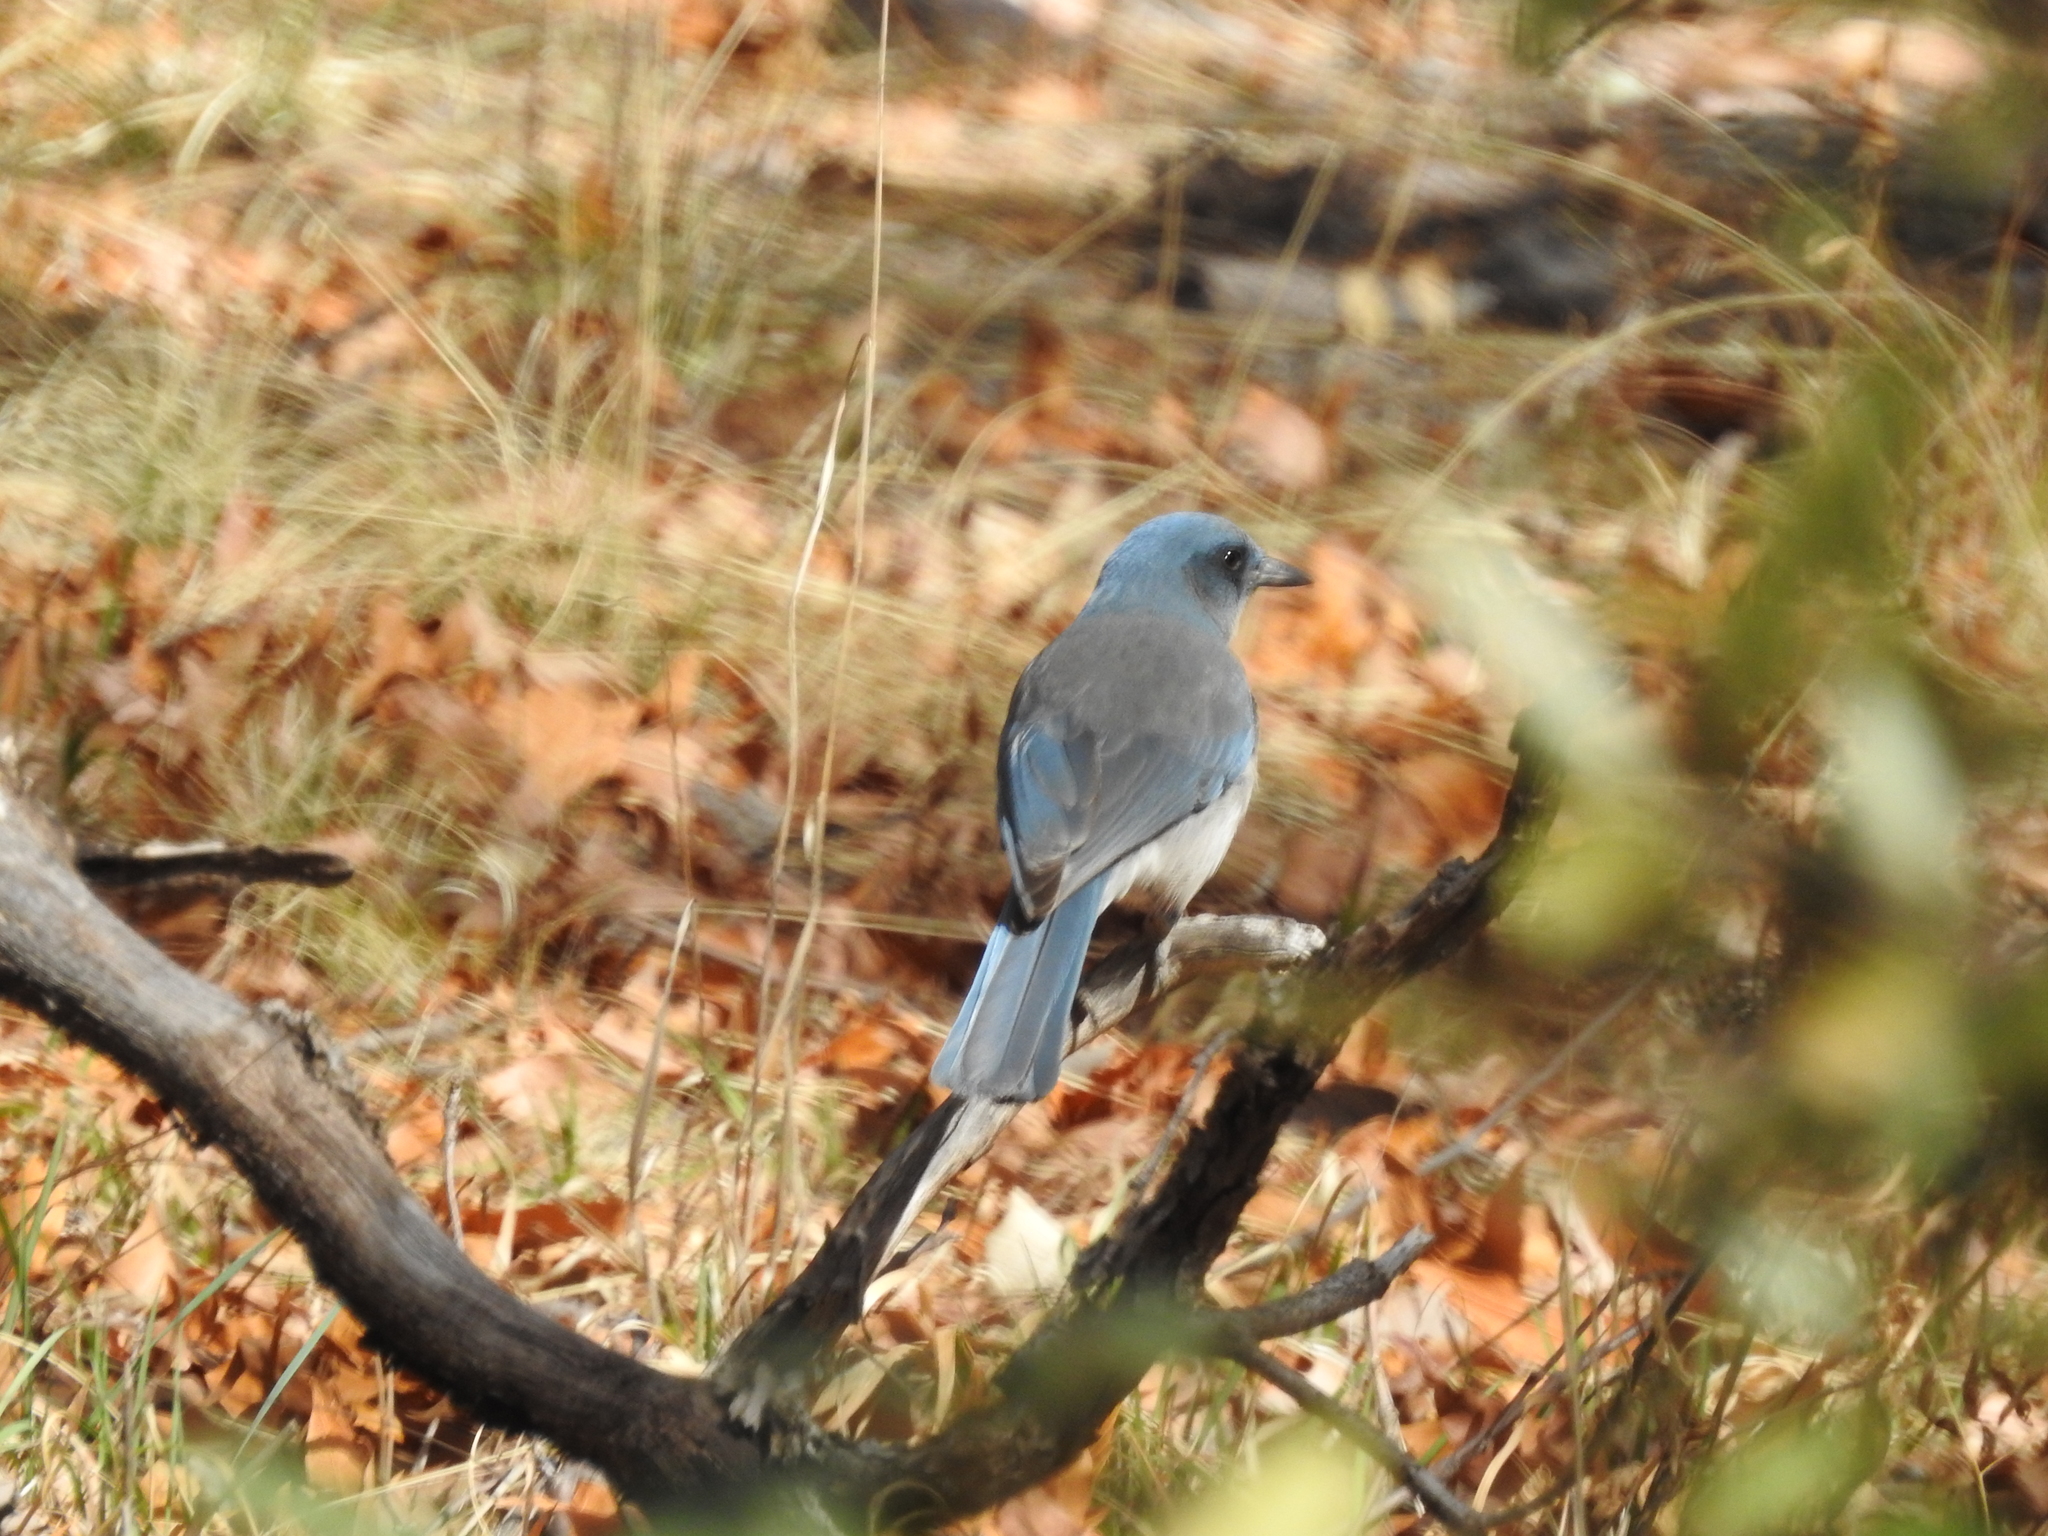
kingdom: Animalia
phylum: Chordata
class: Aves
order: Passeriformes
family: Corvidae
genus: Aphelocoma
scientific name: Aphelocoma wollweberi
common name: Mexican jay
